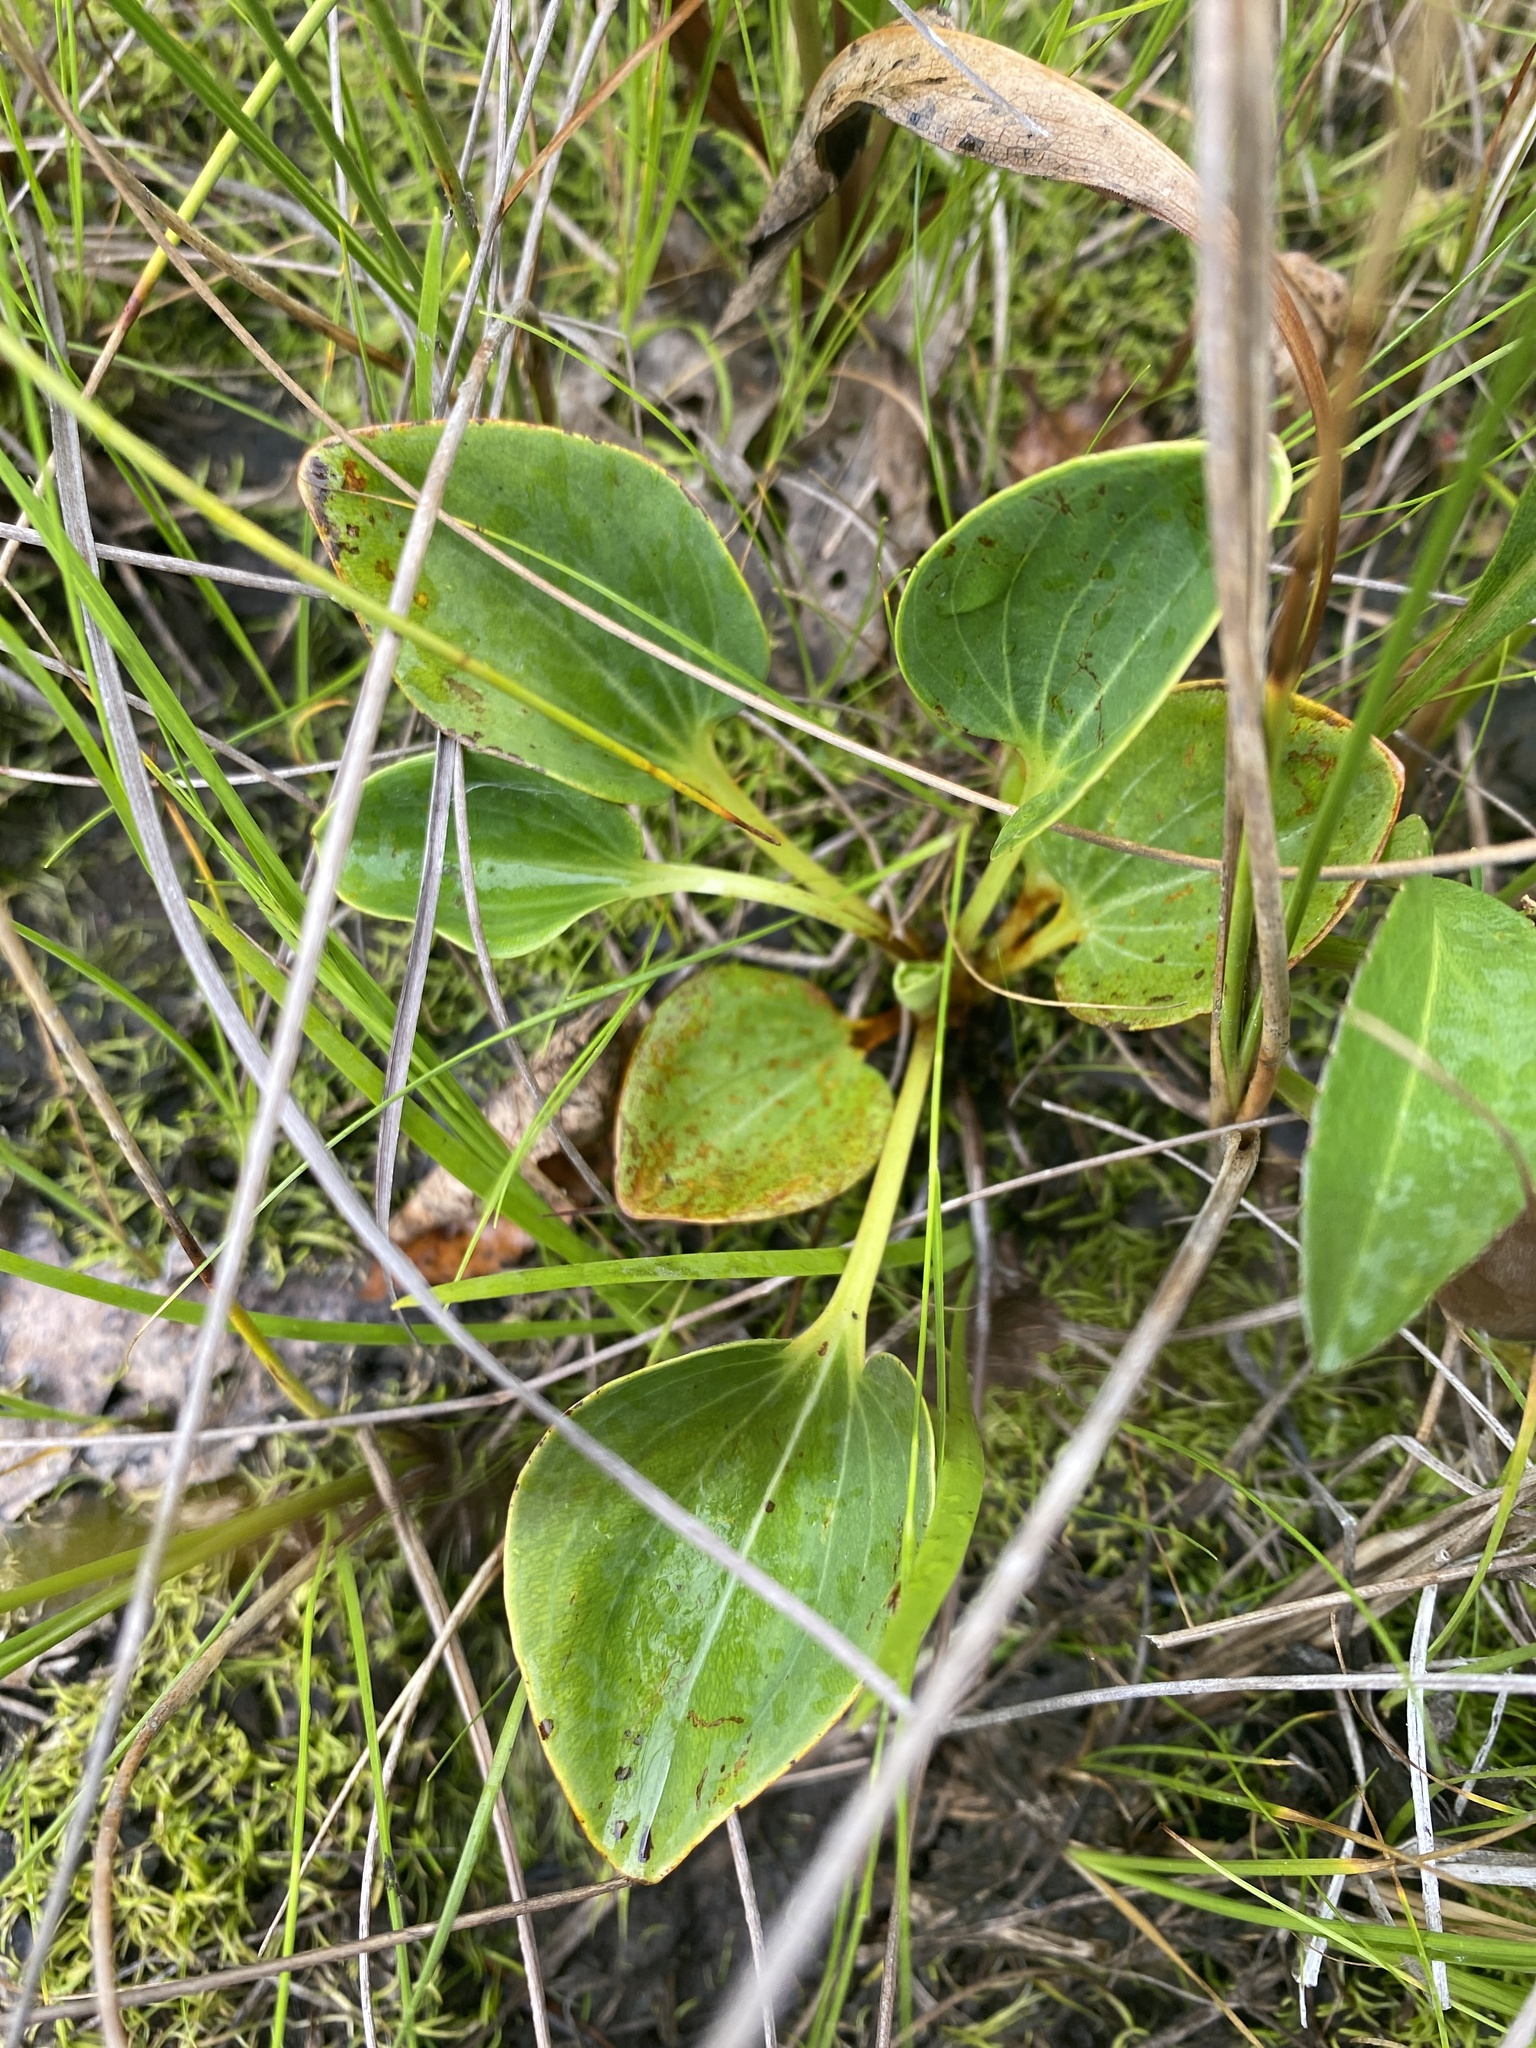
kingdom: Plantae
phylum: Tracheophyta
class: Magnoliopsida
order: Celastrales
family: Parnassiaceae
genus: Parnassia
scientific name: Parnassia grandifolia
